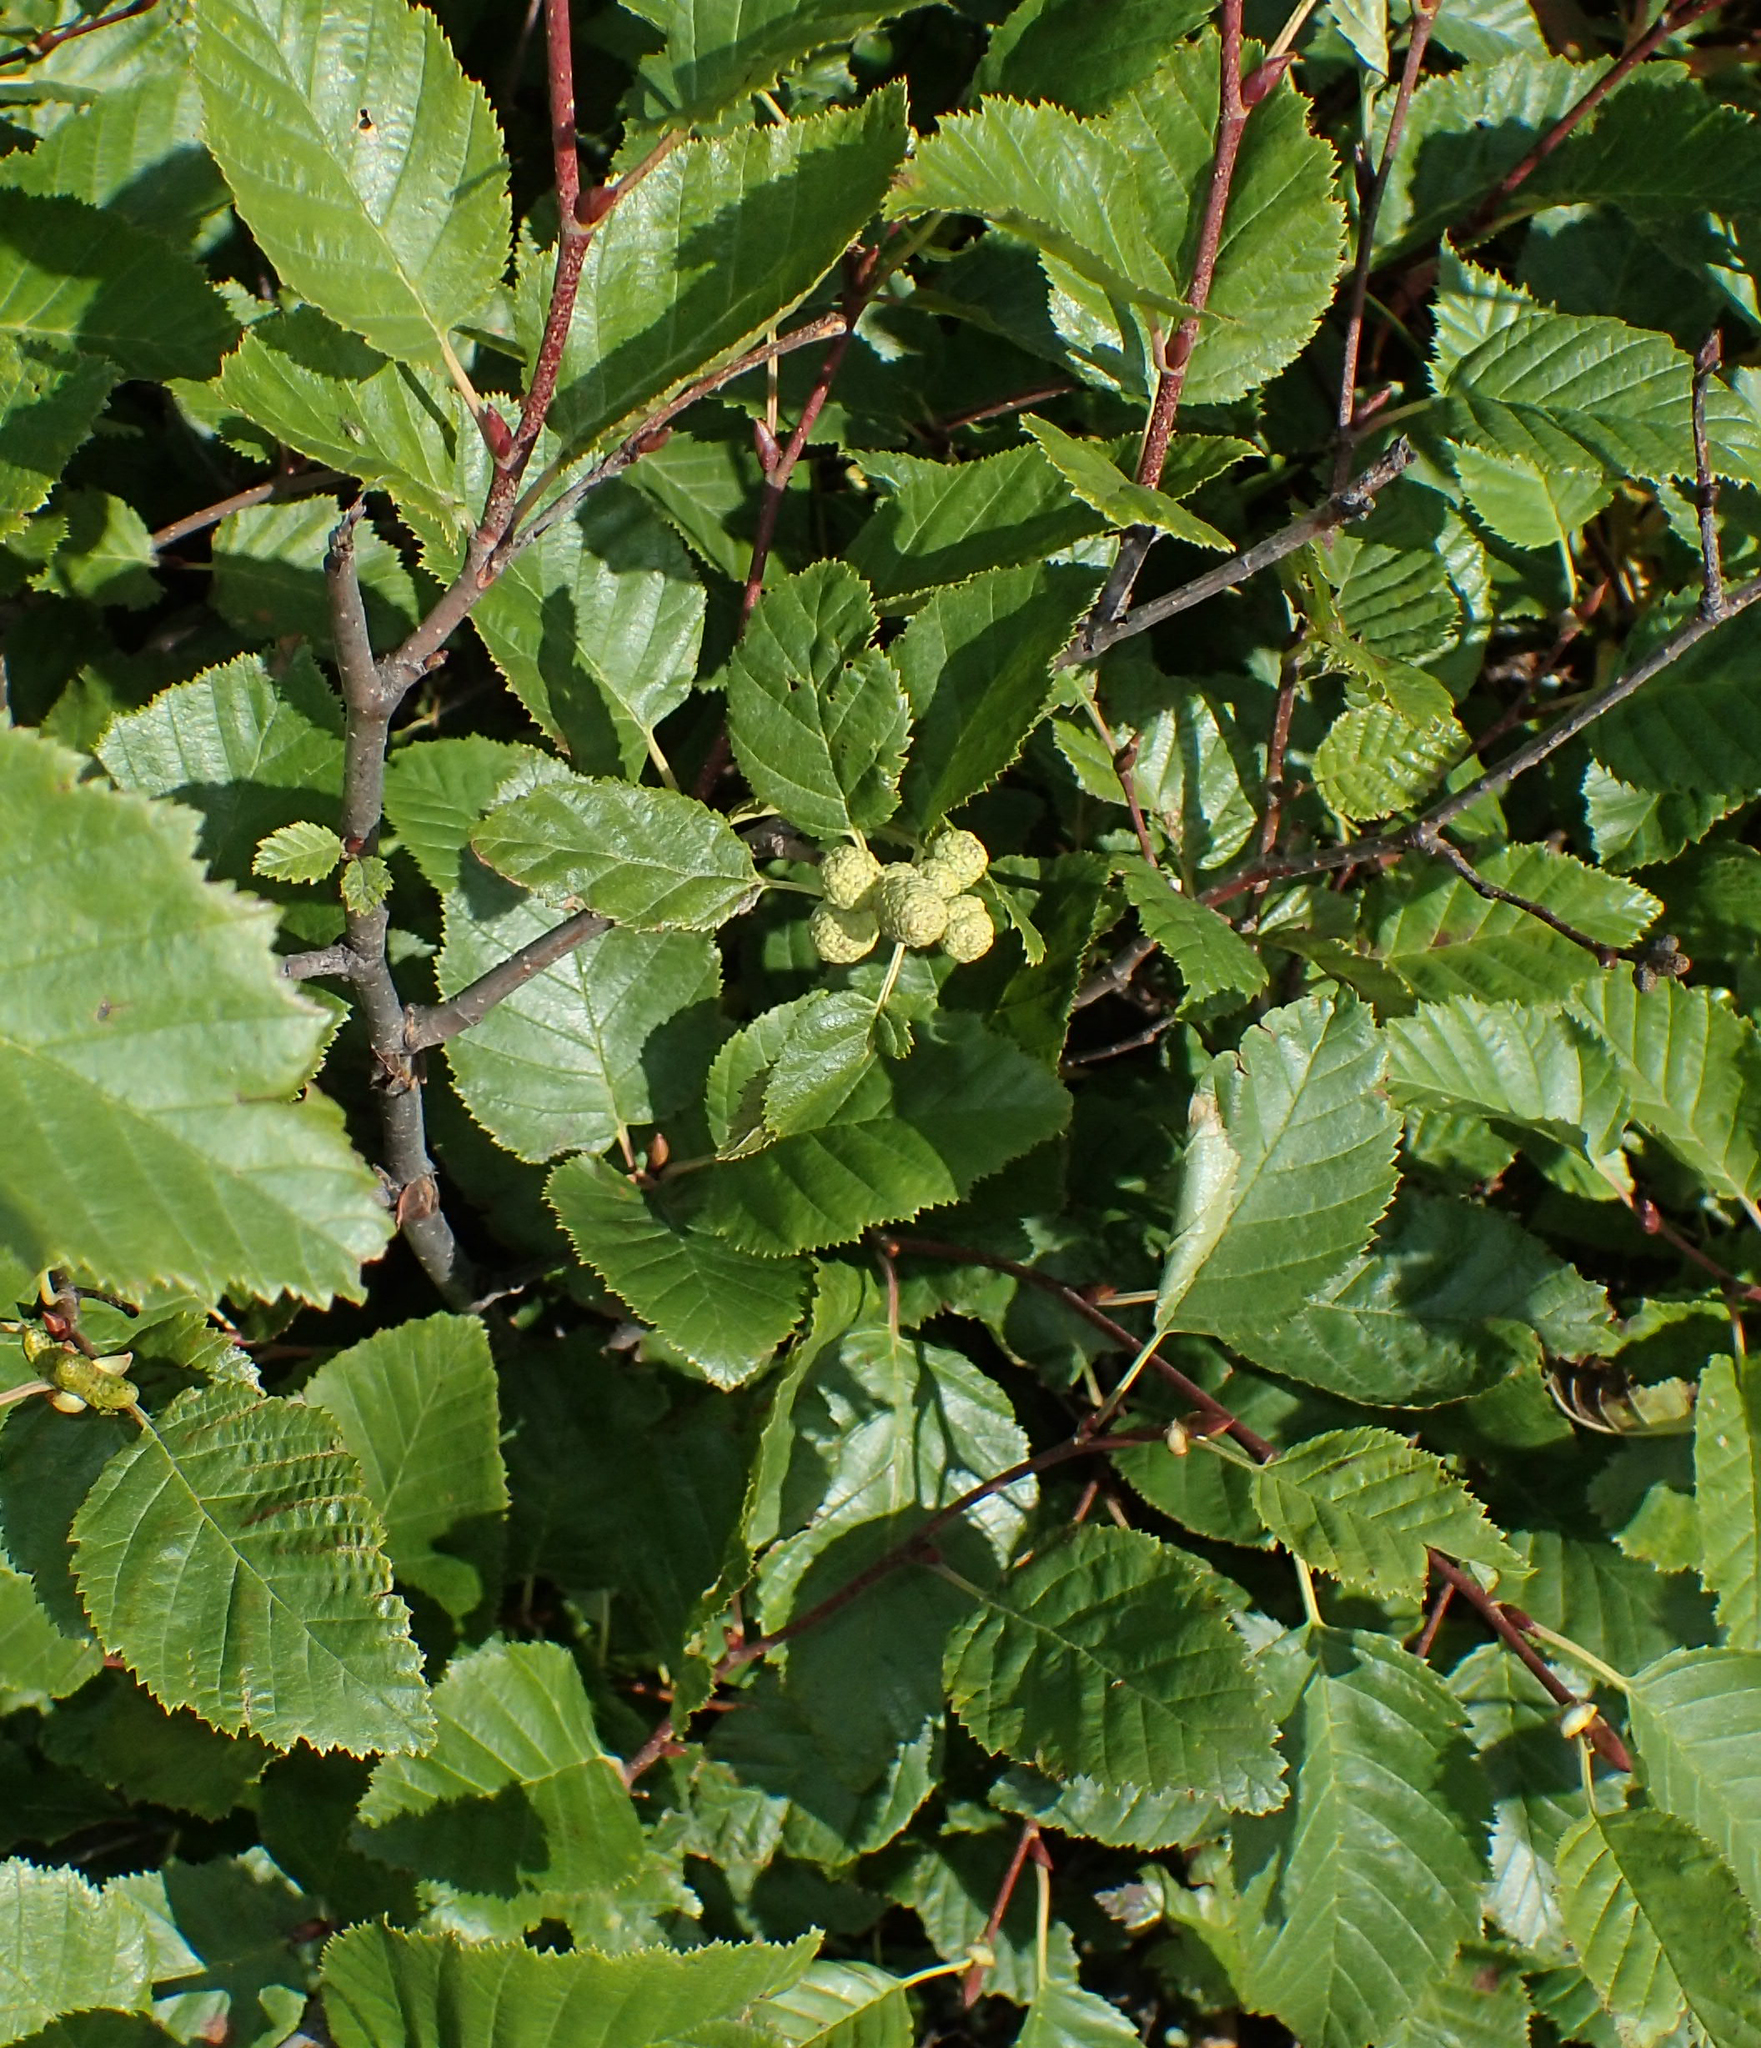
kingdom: Plantae
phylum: Tracheophyta
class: Magnoliopsida
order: Fagales
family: Betulaceae
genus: Alnus
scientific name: Alnus alnobetula
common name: Green alder
